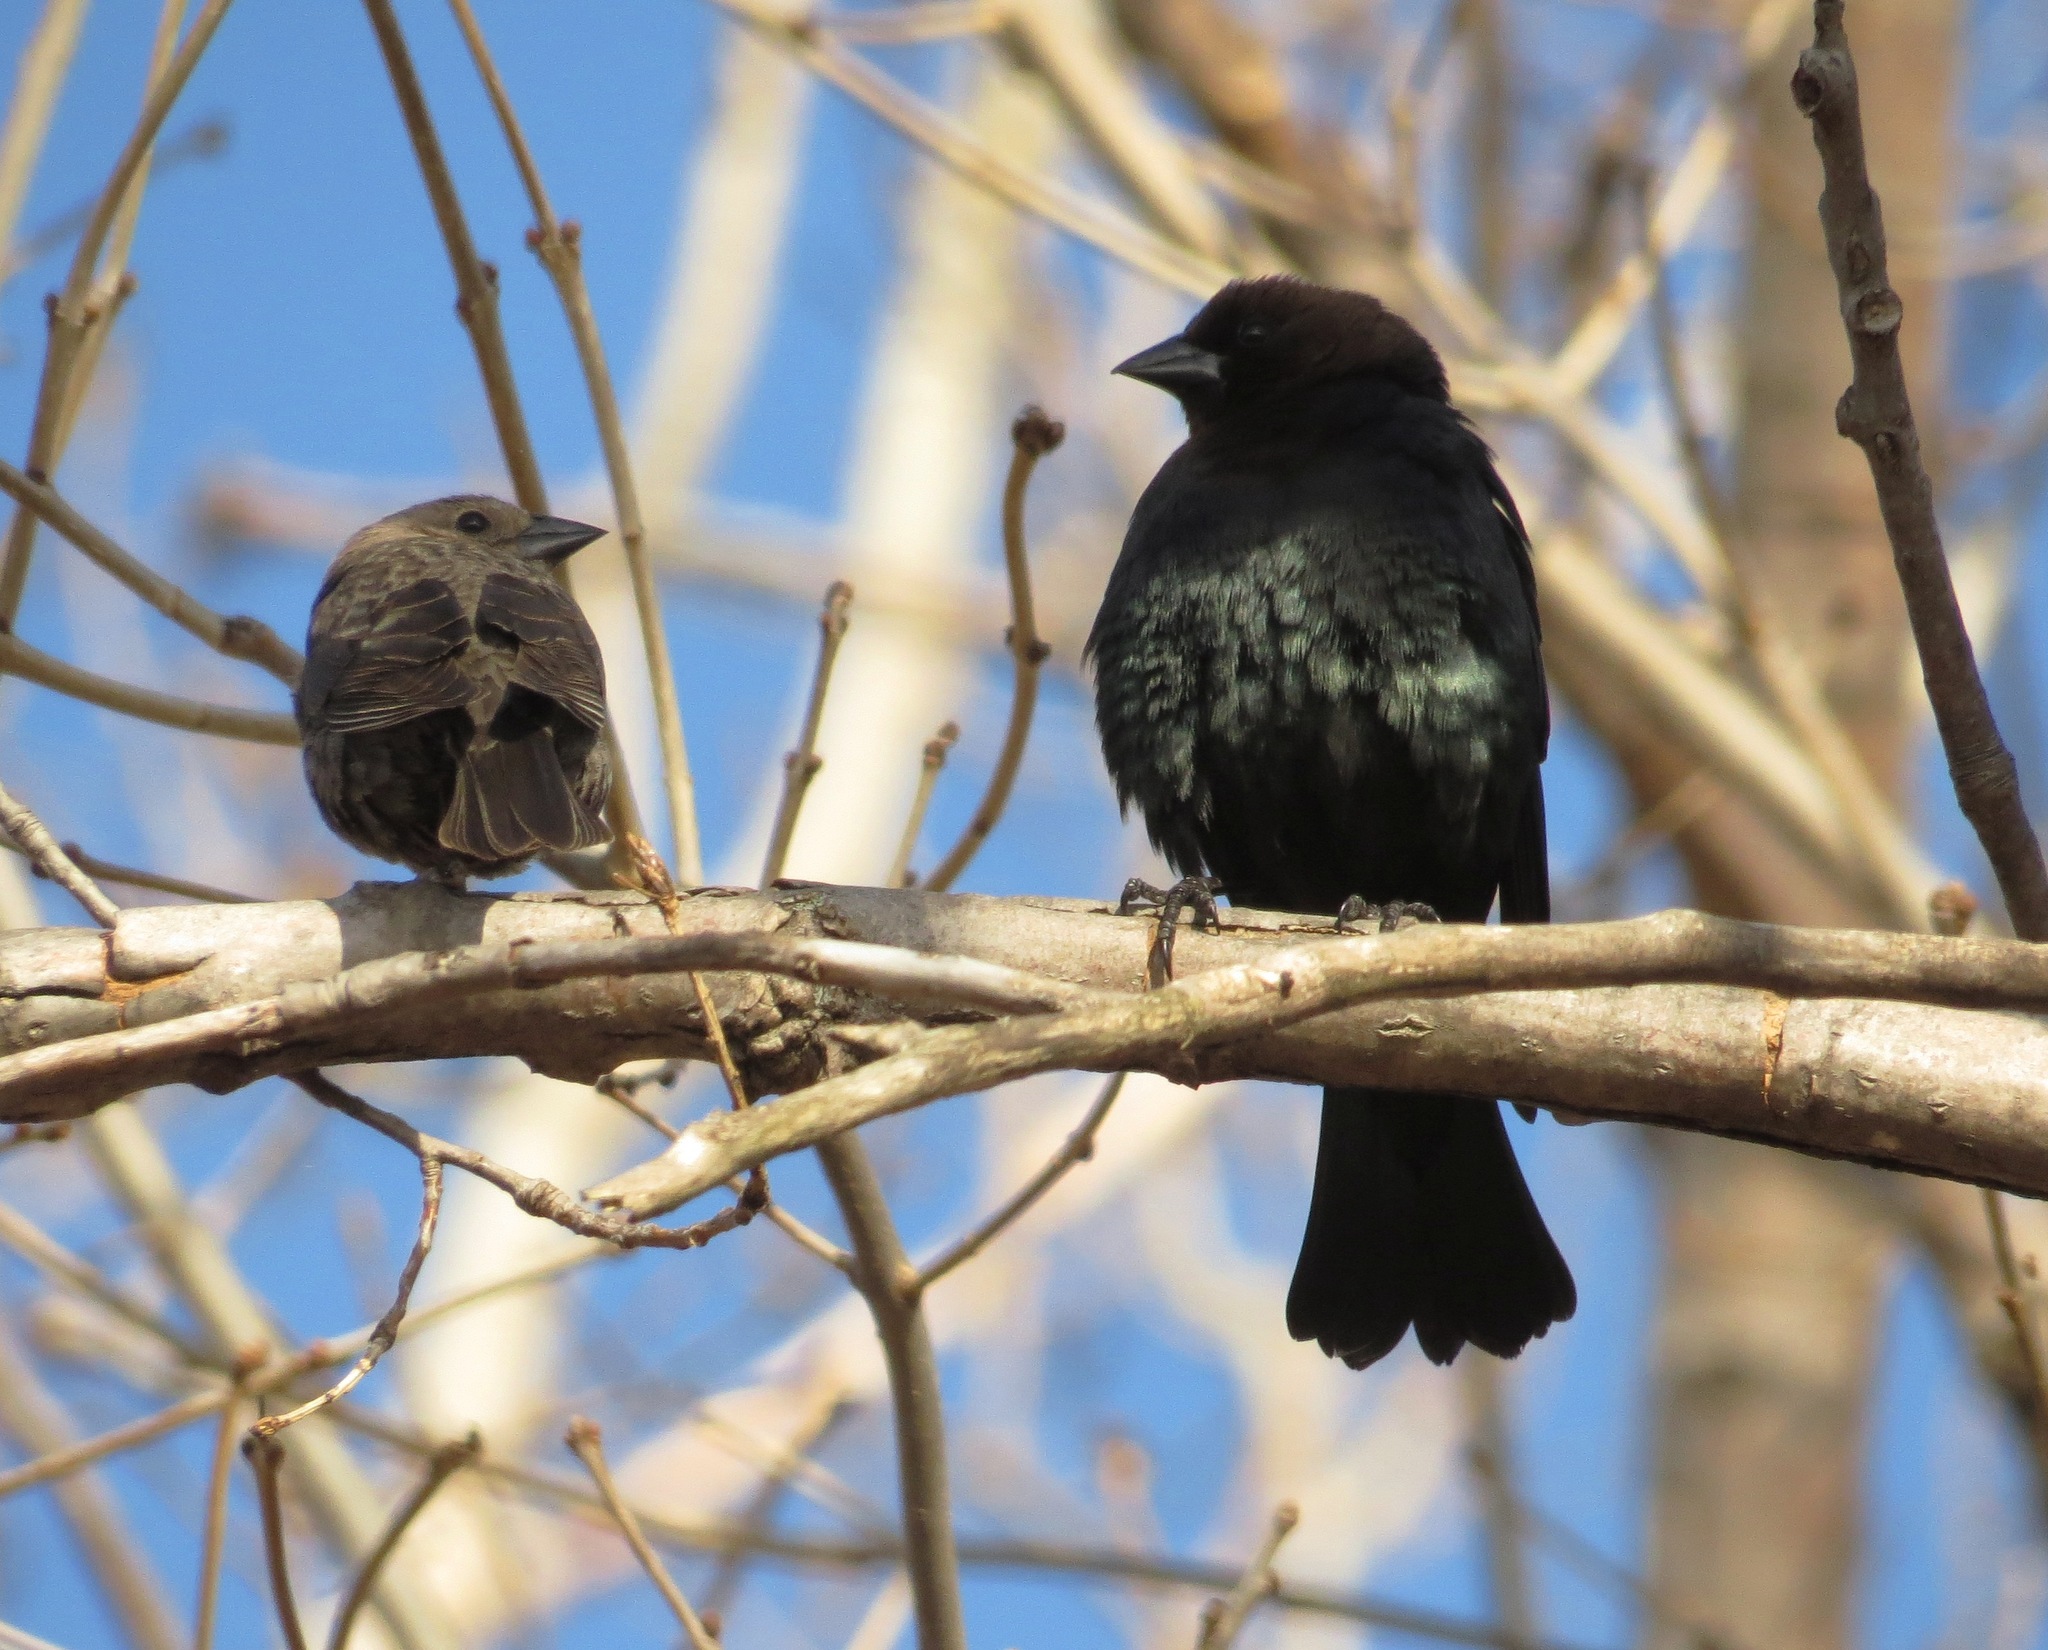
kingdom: Animalia
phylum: Chordata
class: Aves
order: Passeriformes
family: Icteridae
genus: Molothrus
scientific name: Molothrus ater
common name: Brown-headed cowbird
